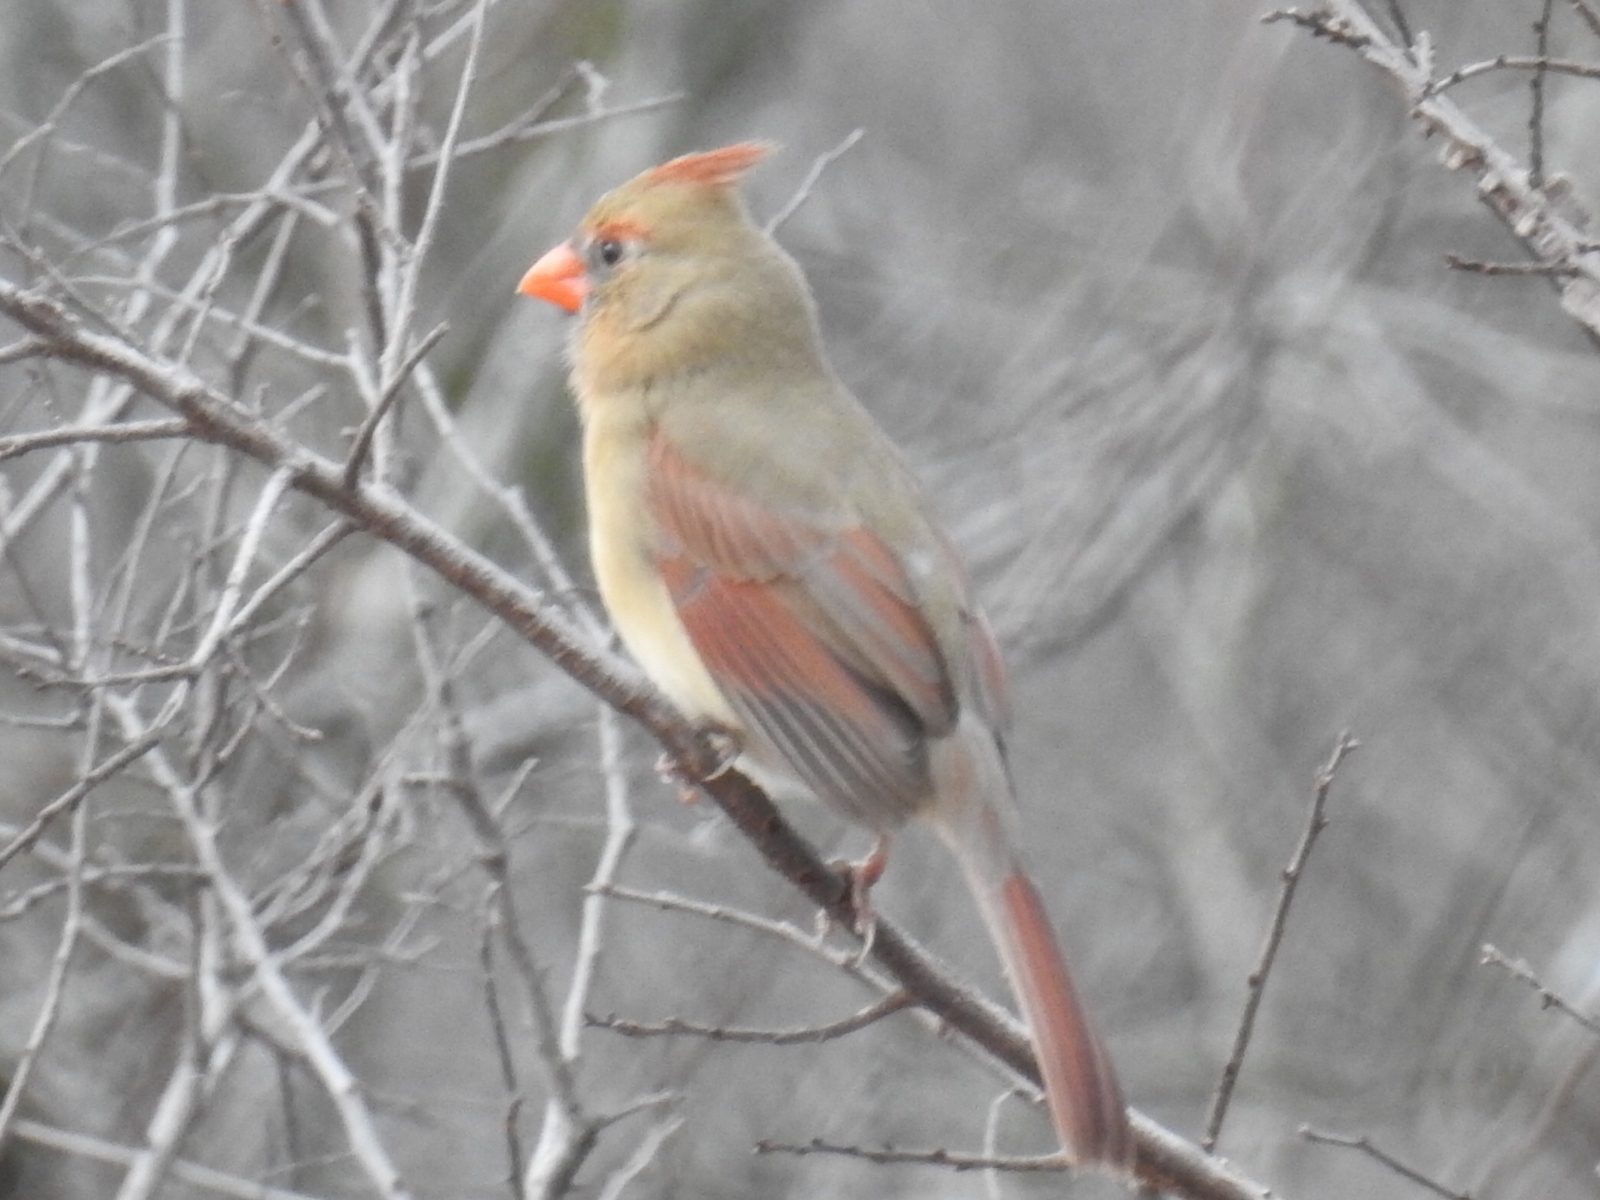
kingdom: Animalia
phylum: Chordata
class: Aves
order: Passeriformes
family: Cardinalidae
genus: Cardinalis
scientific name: Cardinalis cardinalis
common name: Northern cardinal
